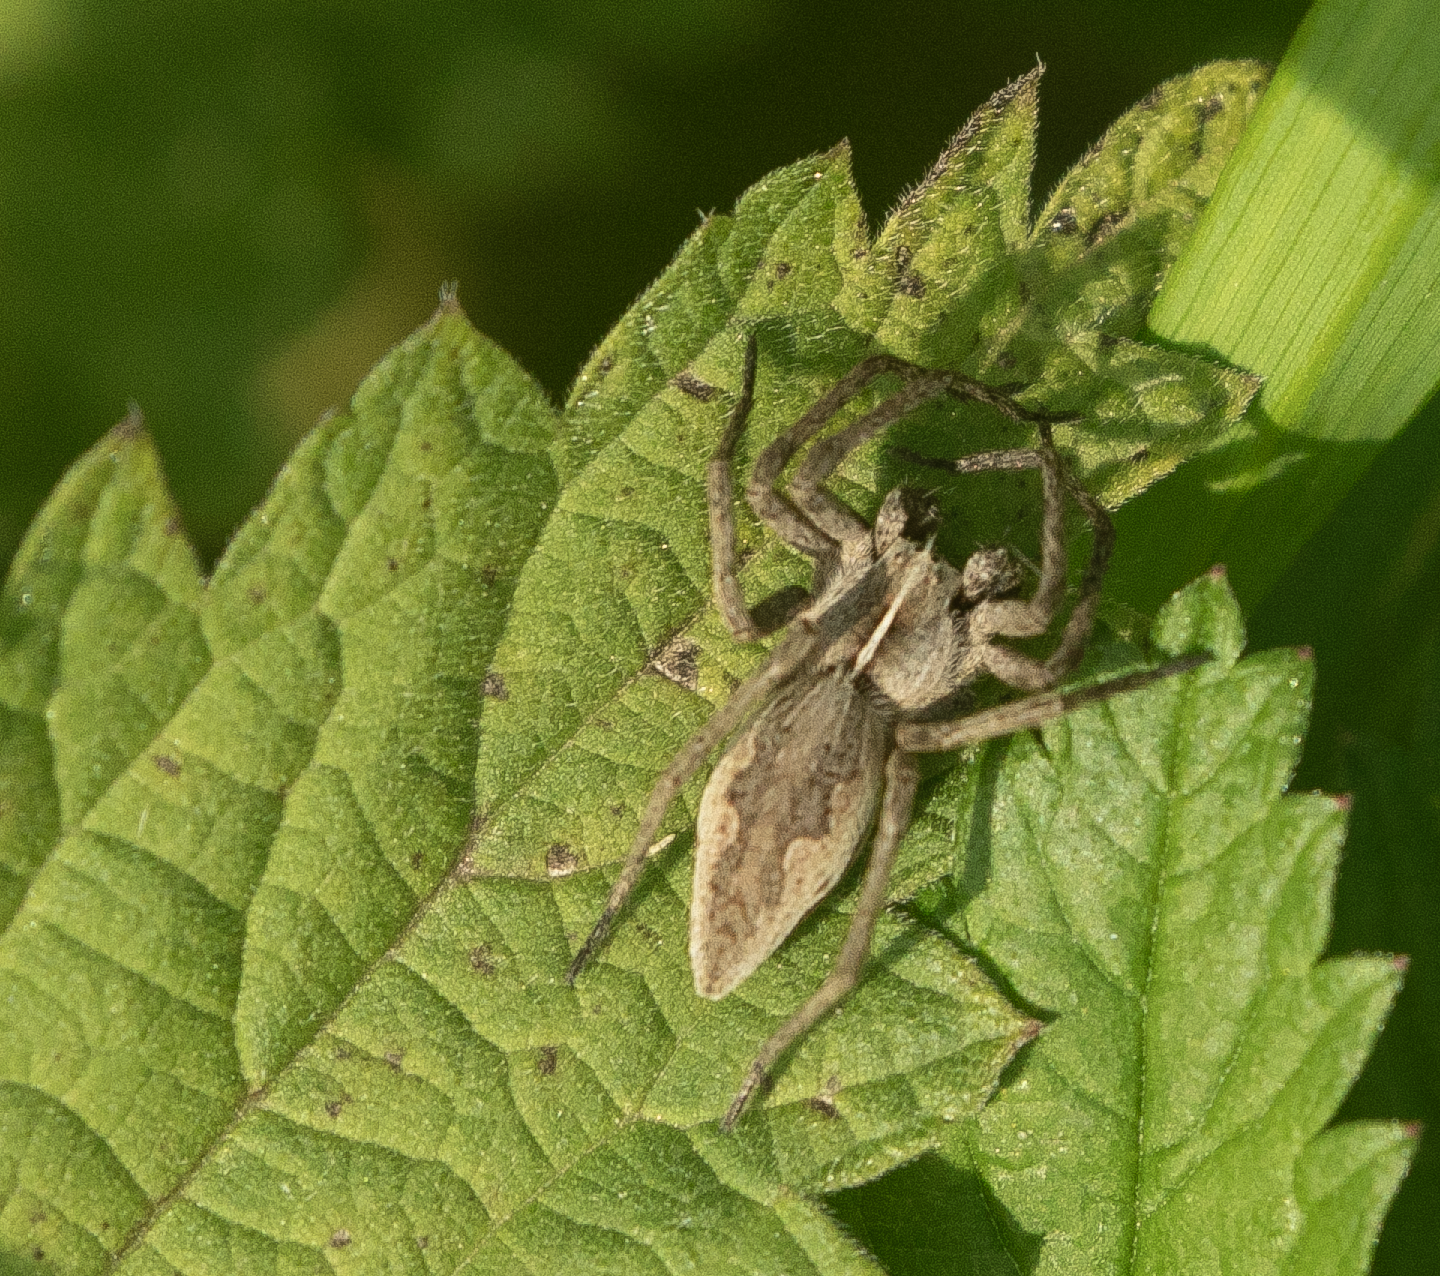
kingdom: Animalia
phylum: Arthropoda
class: Arachnida
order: Araneae
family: Pisauridae
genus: Pisaura
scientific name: Pisaura mirabilis
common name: Tent spider
